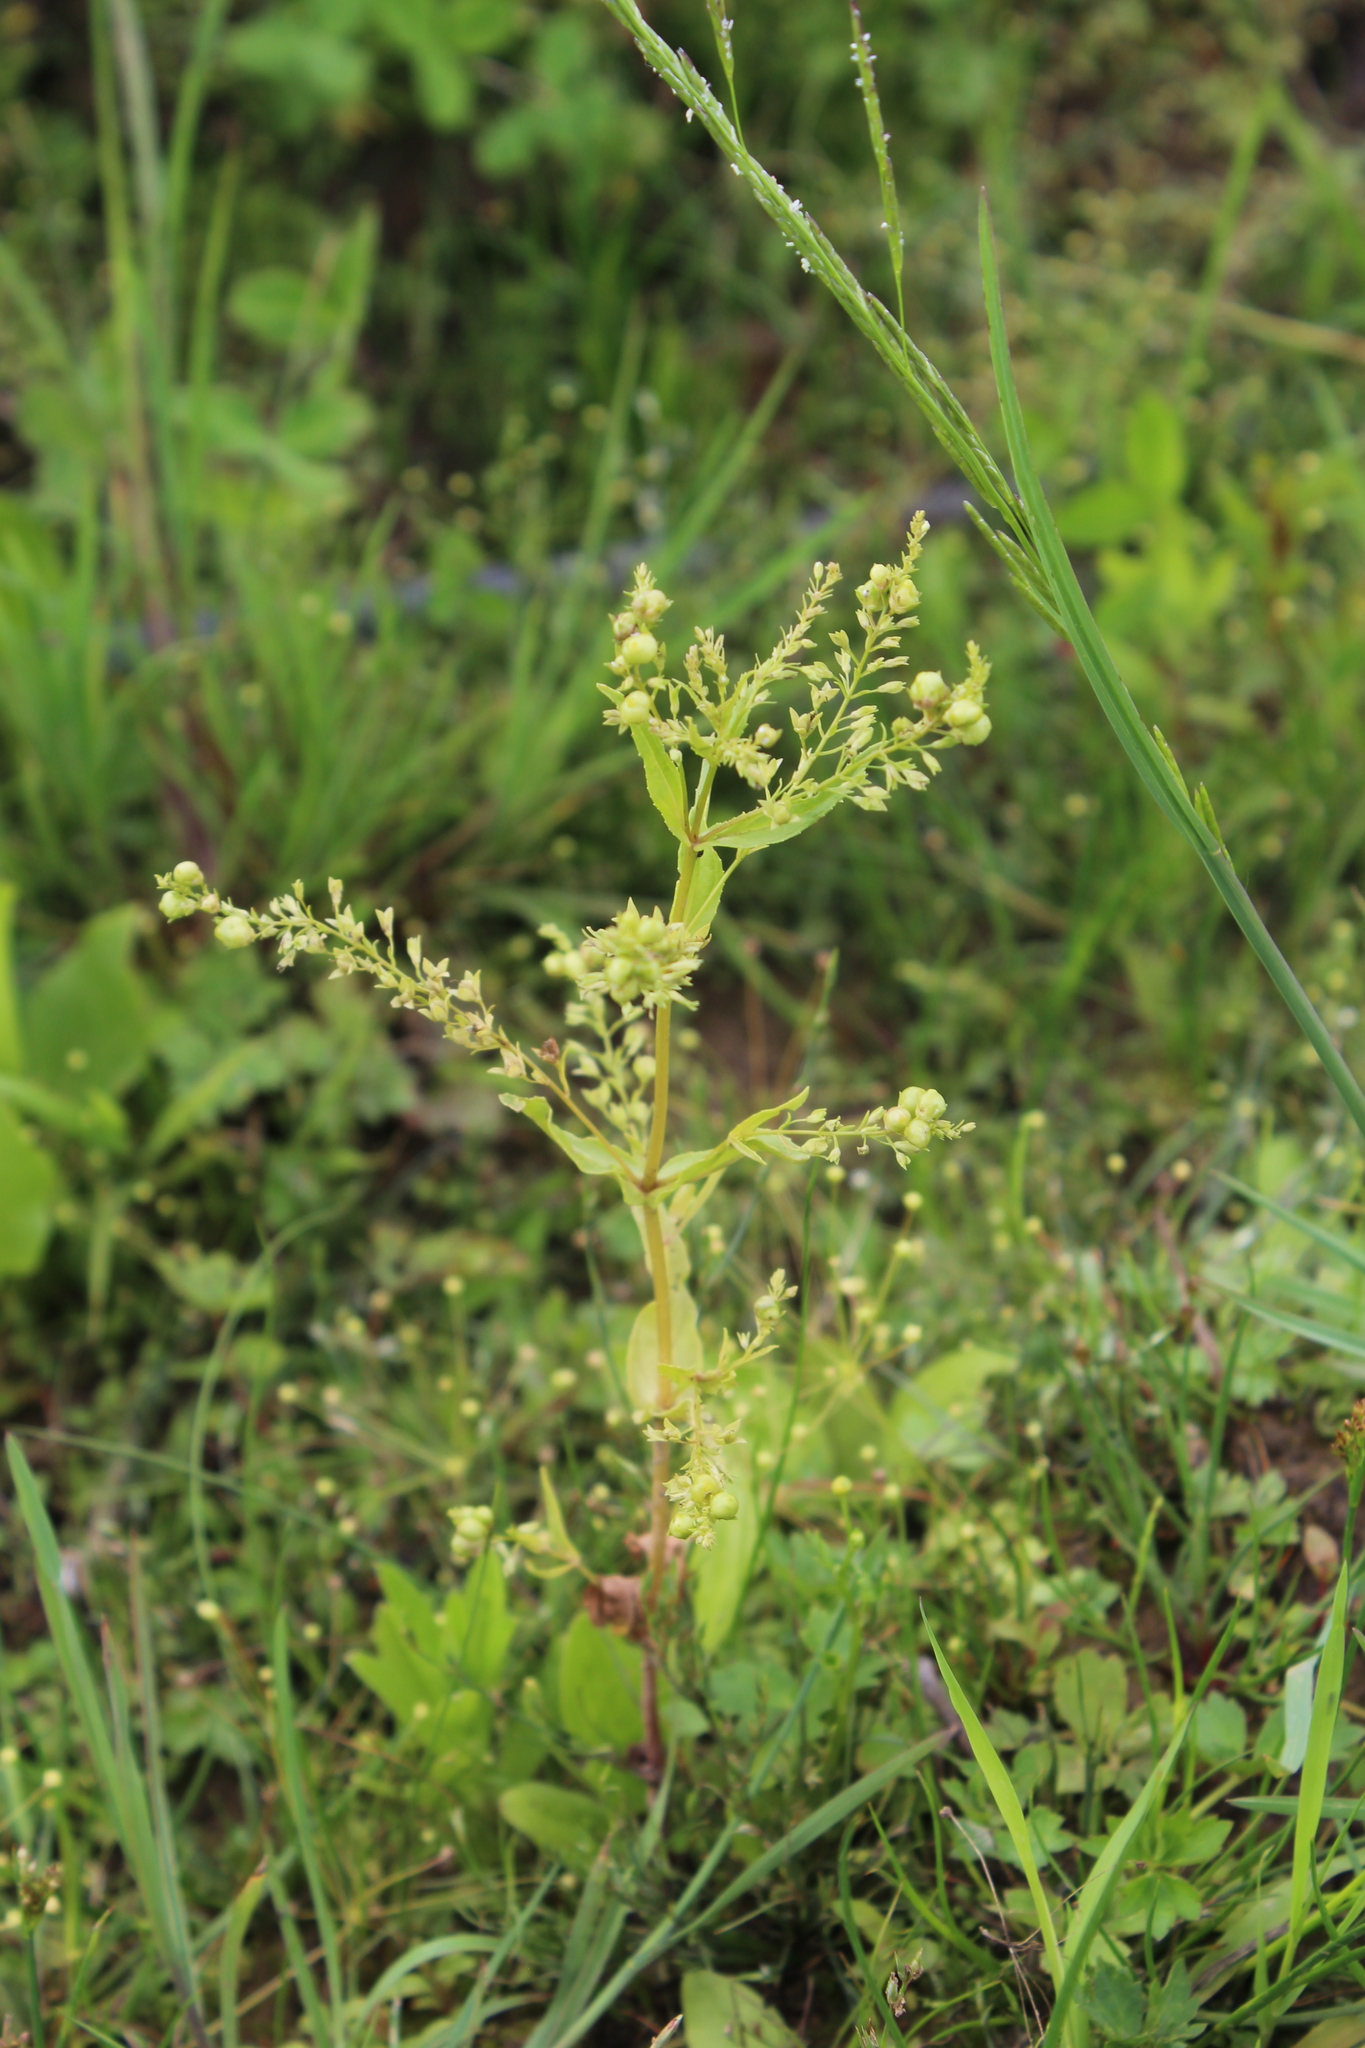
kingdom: Plantae
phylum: Tracheophyta
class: Magnoliopsida
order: Lamiales
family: Plantaginaceae
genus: Veronica
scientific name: Veronica anagallis-aquatica
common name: Water speedwell
